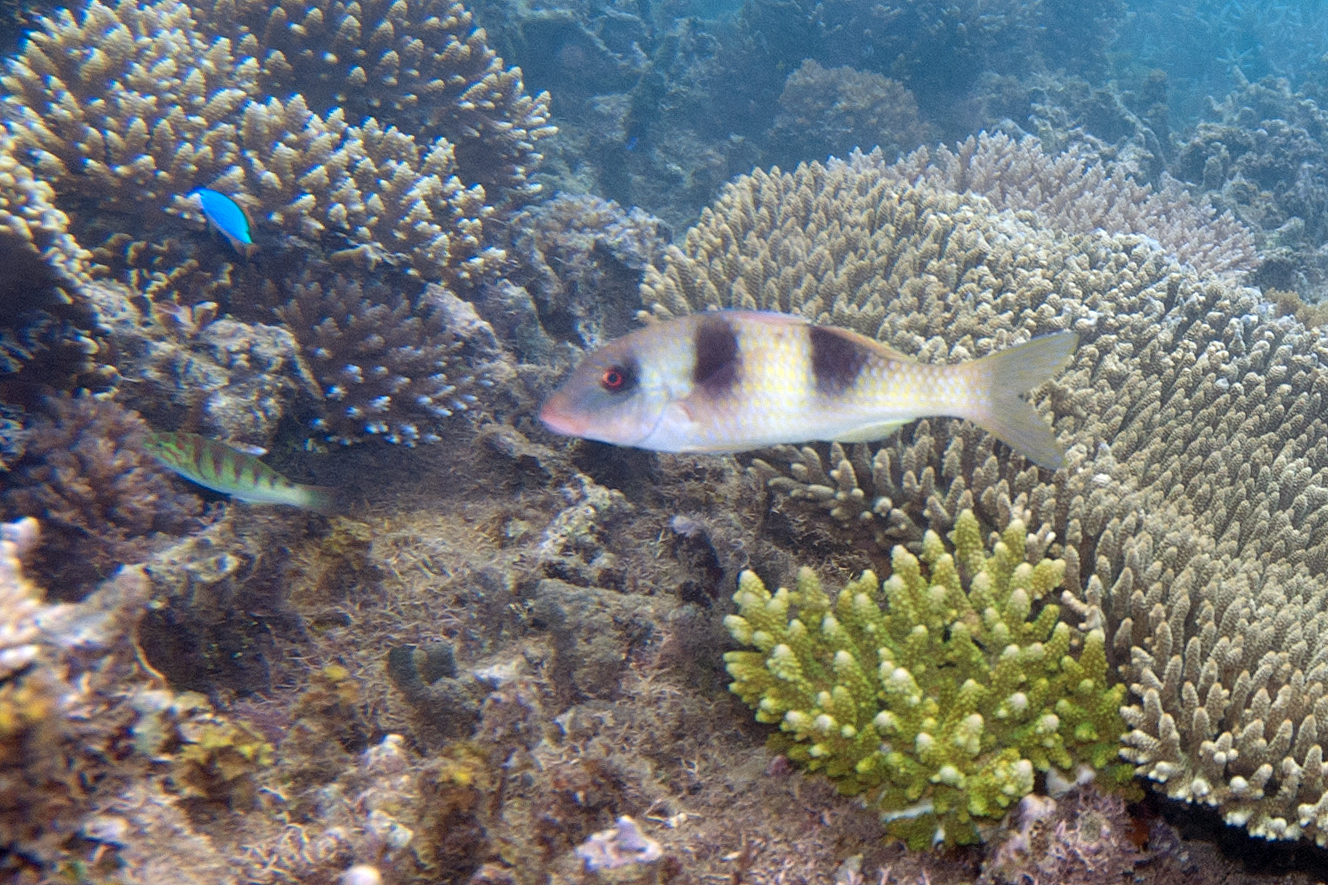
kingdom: Animalia
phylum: Chordata
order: Perciformes
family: Mullidae
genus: Parupeneus
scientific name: Parupeneus crassilabris
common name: Doublebar goatfish
